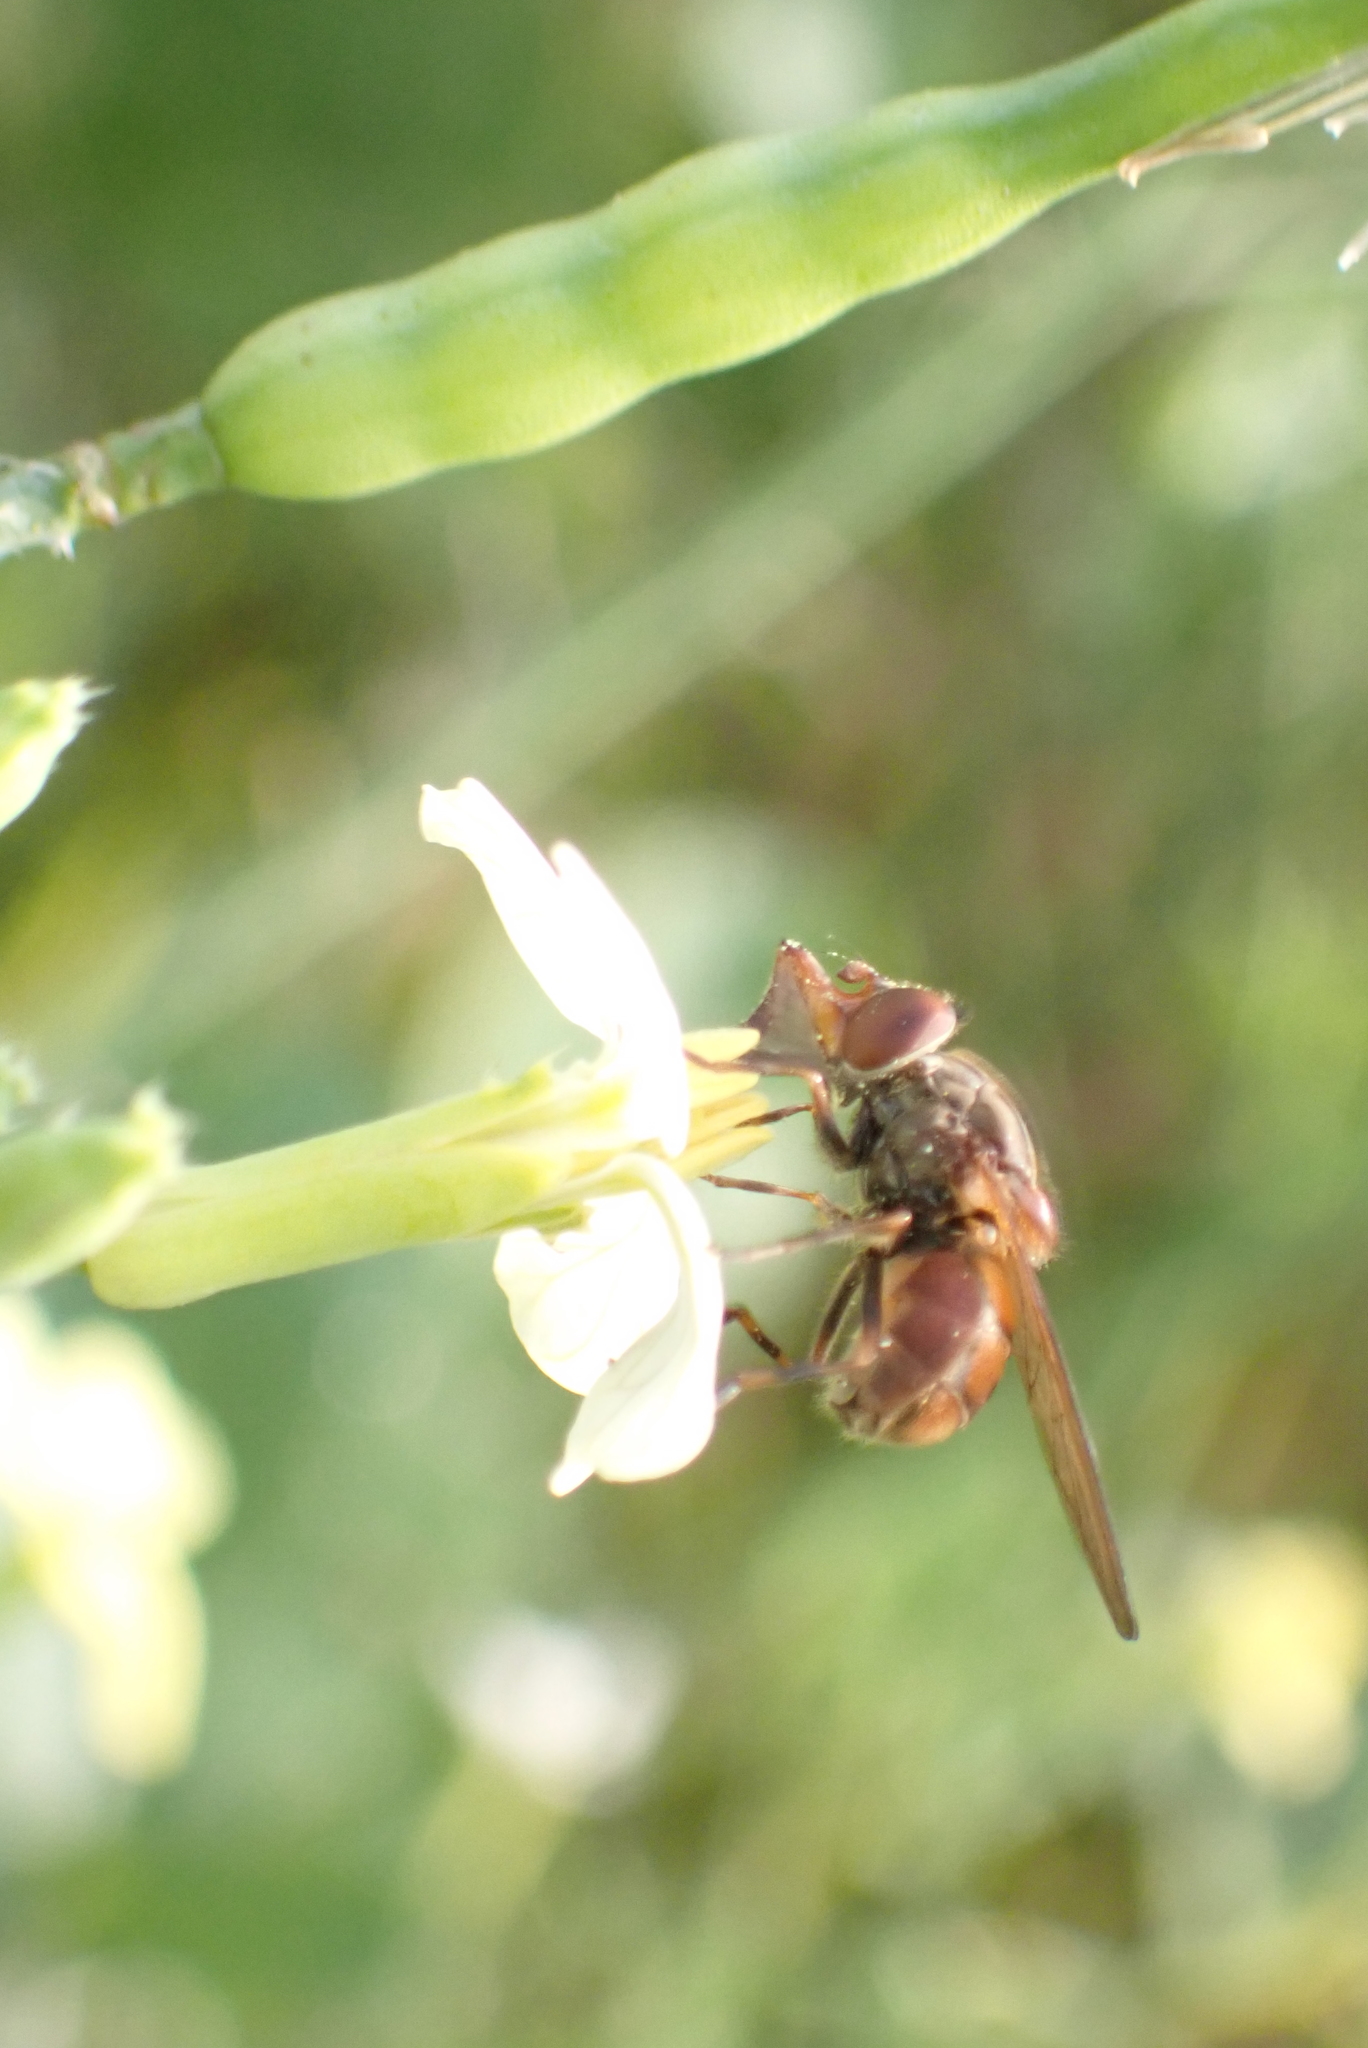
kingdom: Animalia
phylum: Arthropoda
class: Insecta
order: Diptera
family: Syrphidae
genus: Rhingia
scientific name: Rhingia campestris
